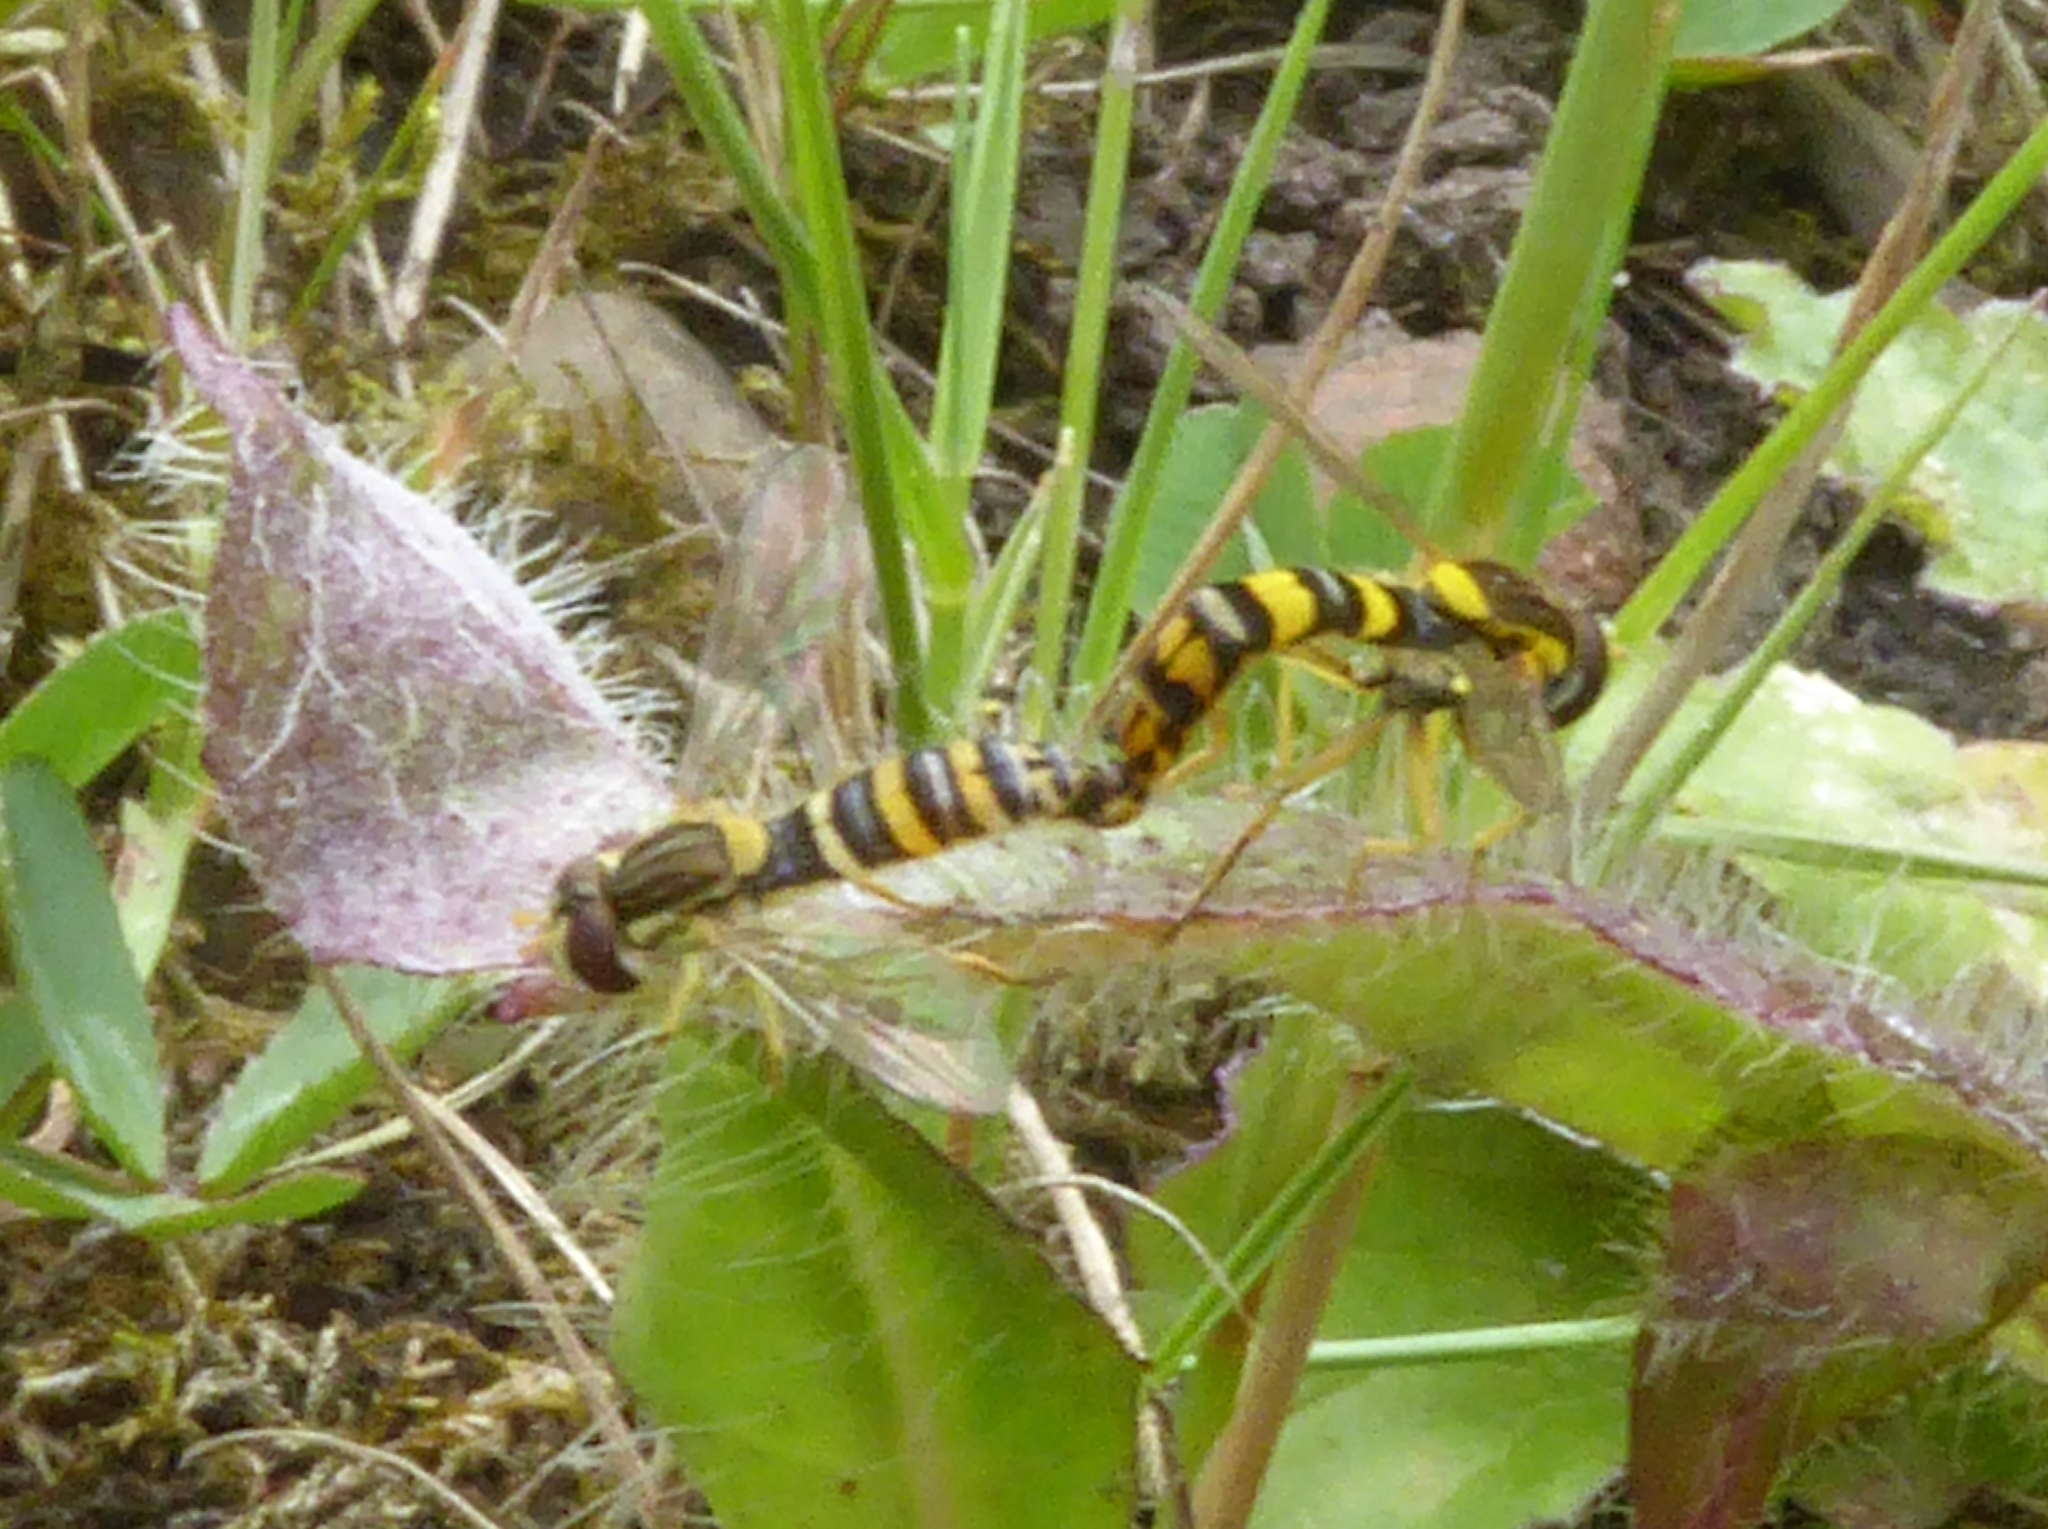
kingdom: Animalia
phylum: Arthropoda
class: Insecta
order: Diptera
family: Syrphidae
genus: Sphaerophoria
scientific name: Sphaerophoria scripta
